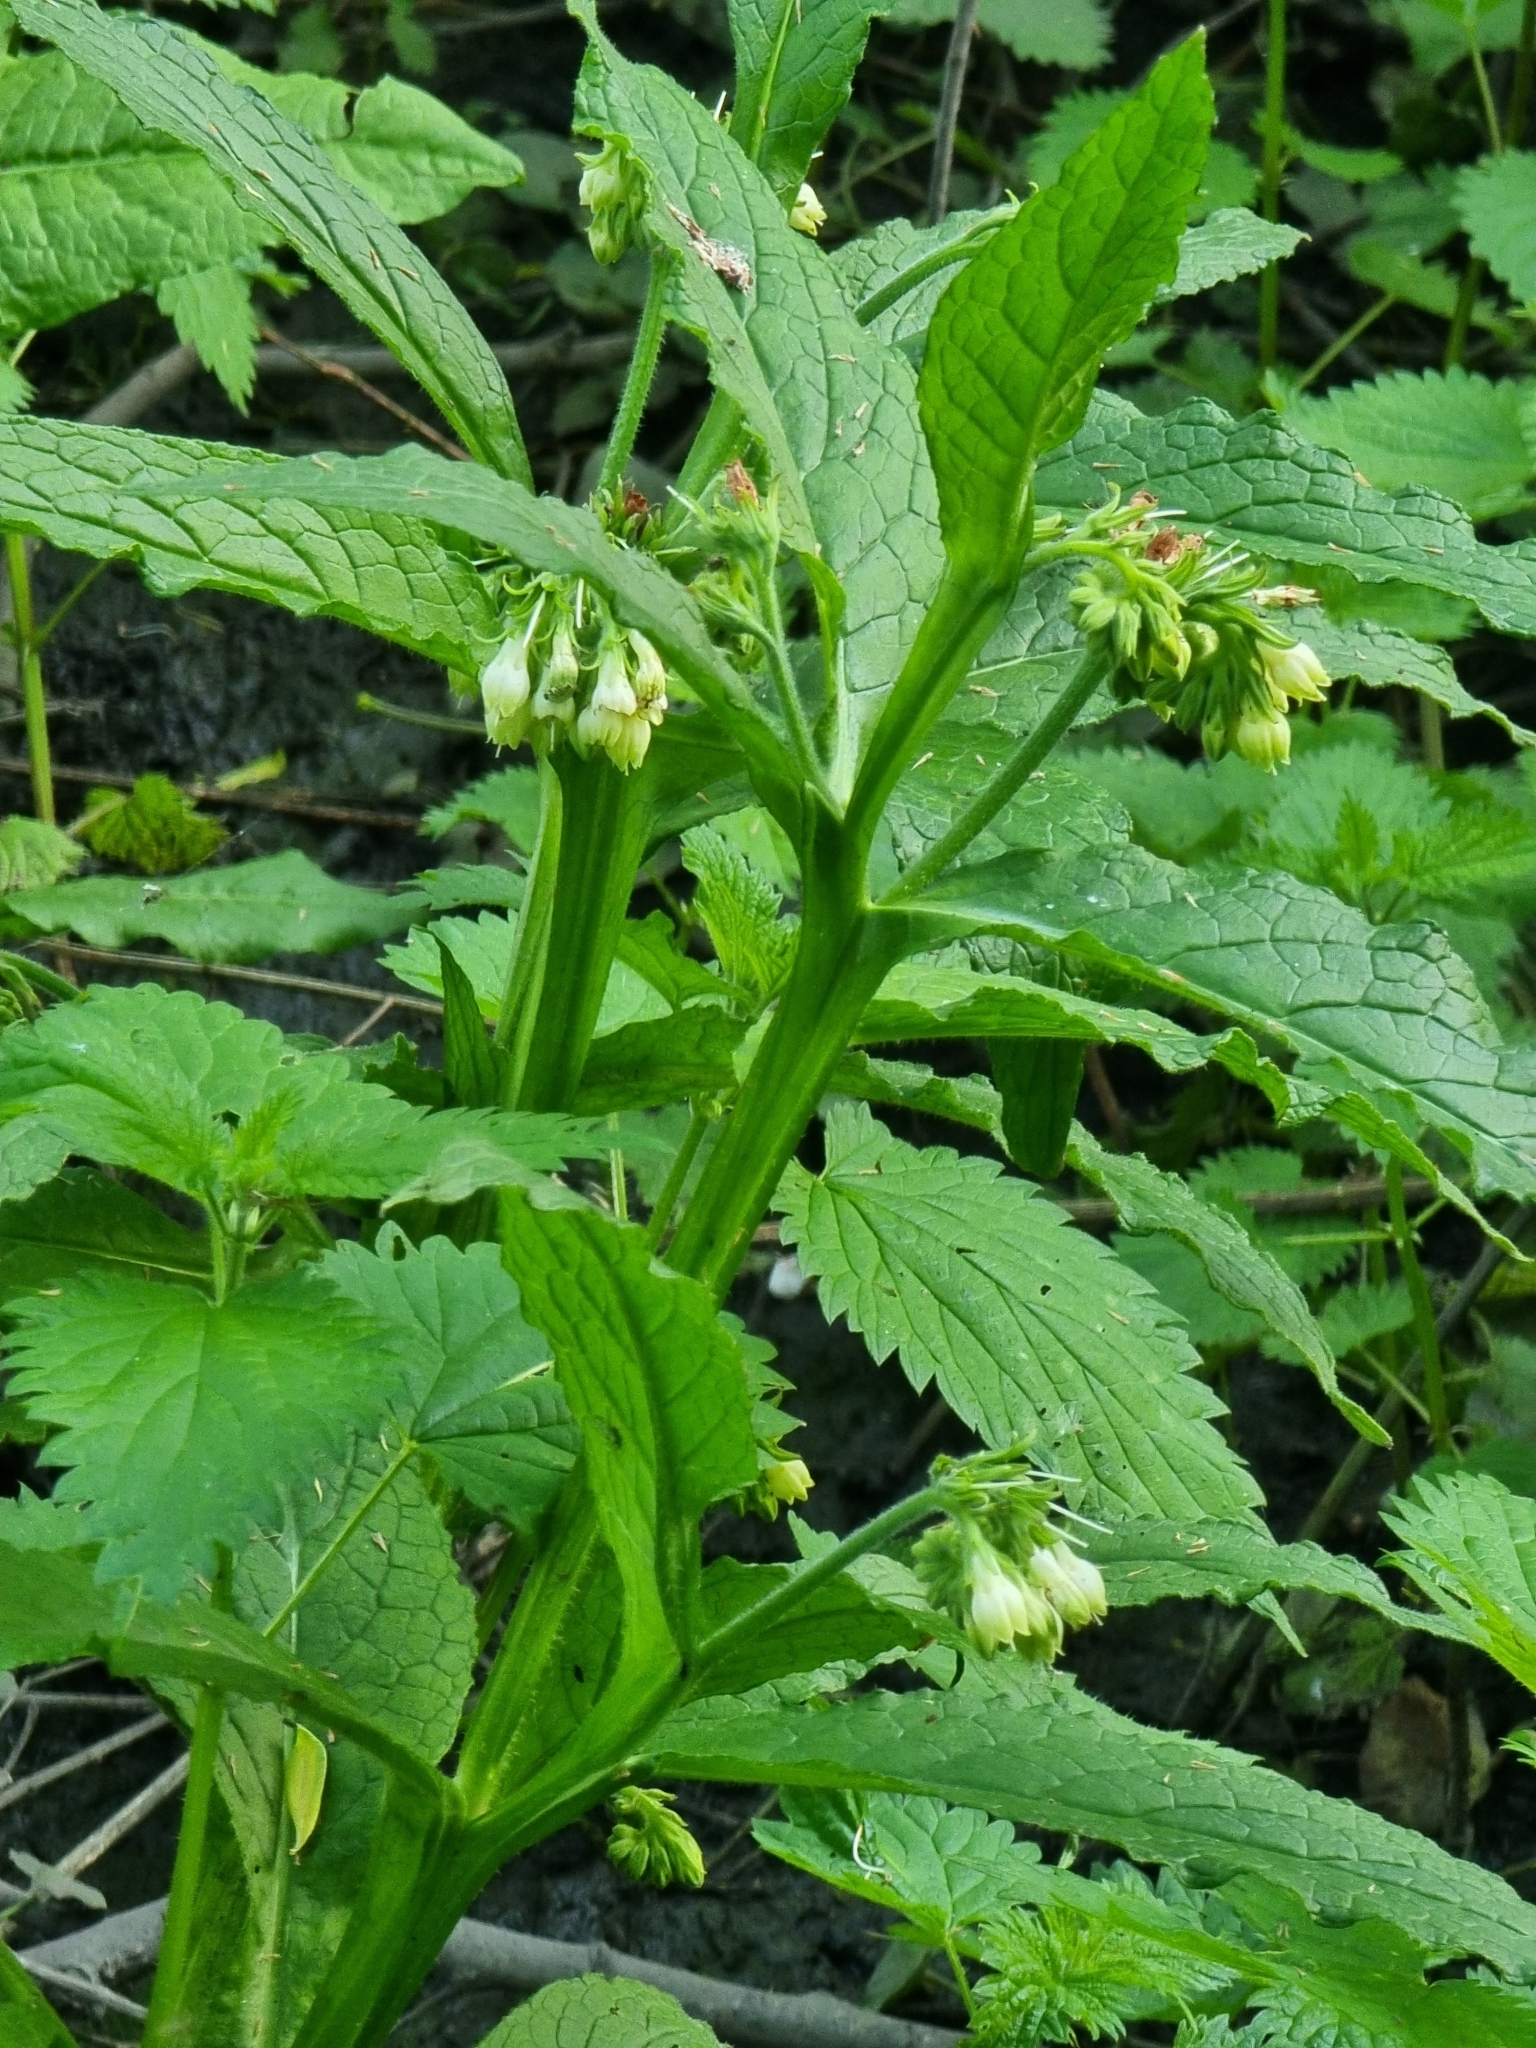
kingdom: Plantae
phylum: Tracheophyta
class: Magnoliopsida
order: Boraginales
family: Boraginaceae
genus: Symphytum
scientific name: Symphytum officinale
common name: Common comfrey
